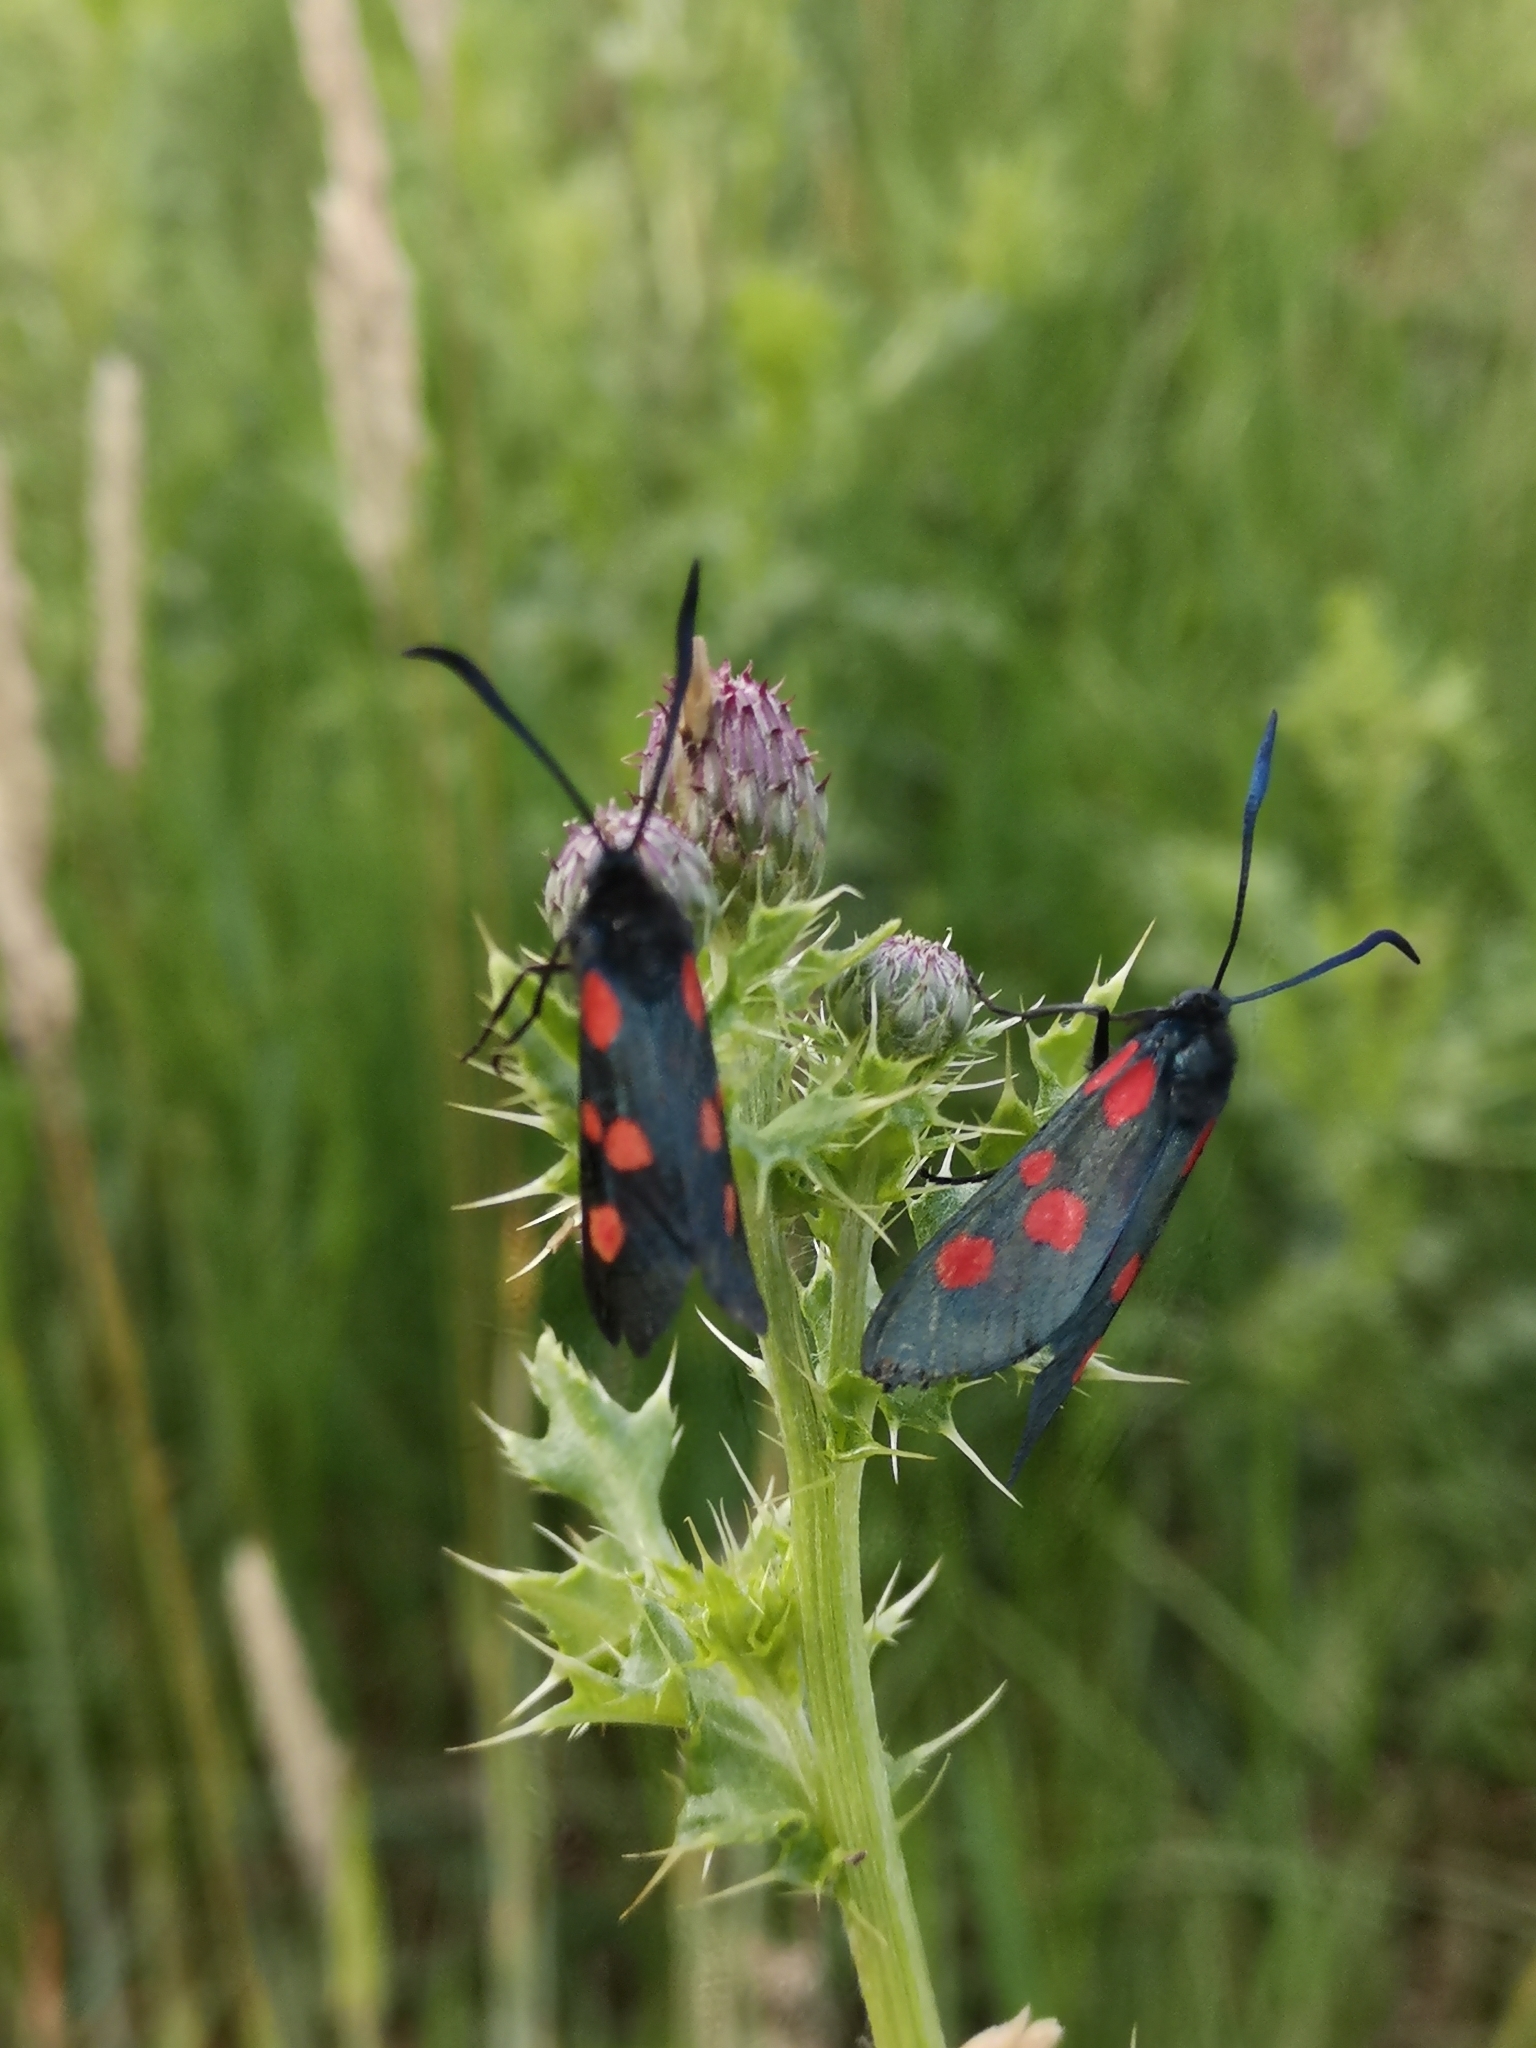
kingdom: Animalia
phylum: Arthropoda
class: Insecta
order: Lepidoptera
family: Zygaenidae
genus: Zygaena
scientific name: Zygaena lonicerae
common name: Narrow-bordered five-spot burnet
